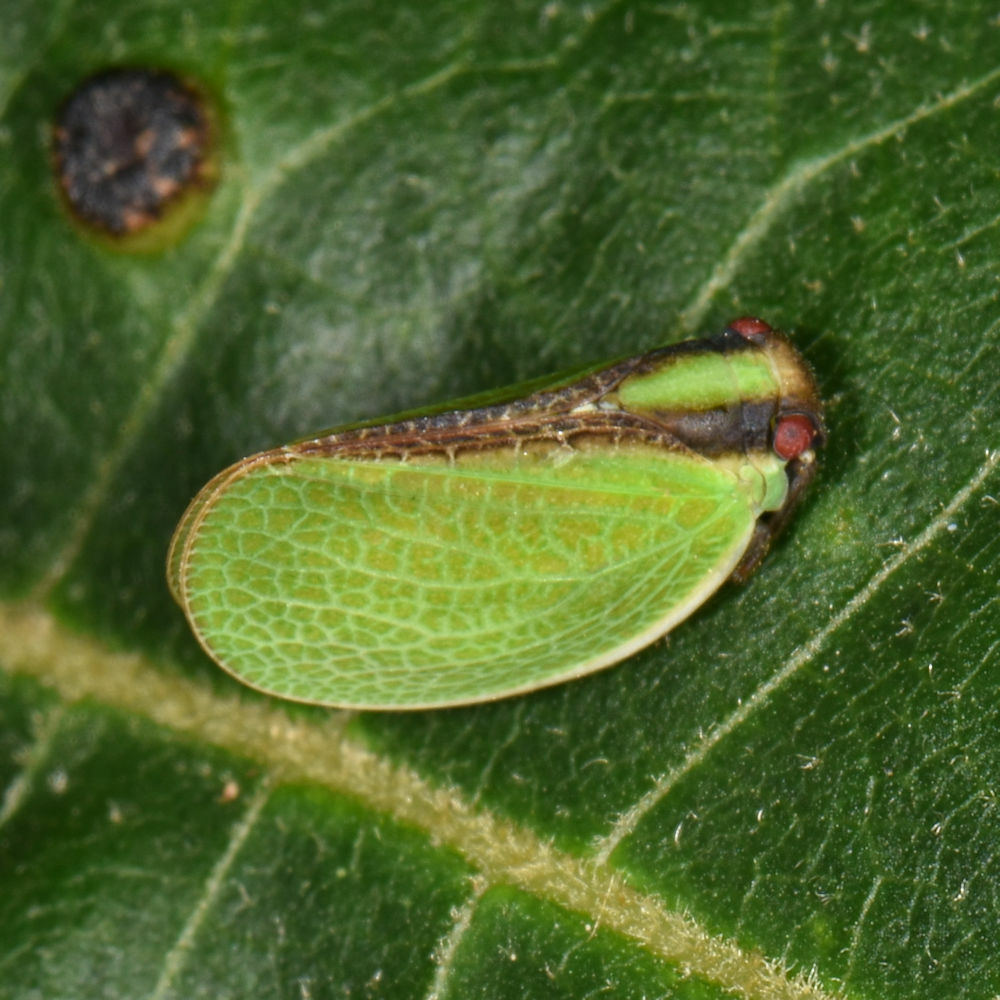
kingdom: Animalia
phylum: Arthropoda
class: Insecta
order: Hemiptera
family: Acanaloniidae
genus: Acanalonia
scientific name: Acanalonia bivittata
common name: Two-striped planthopper
